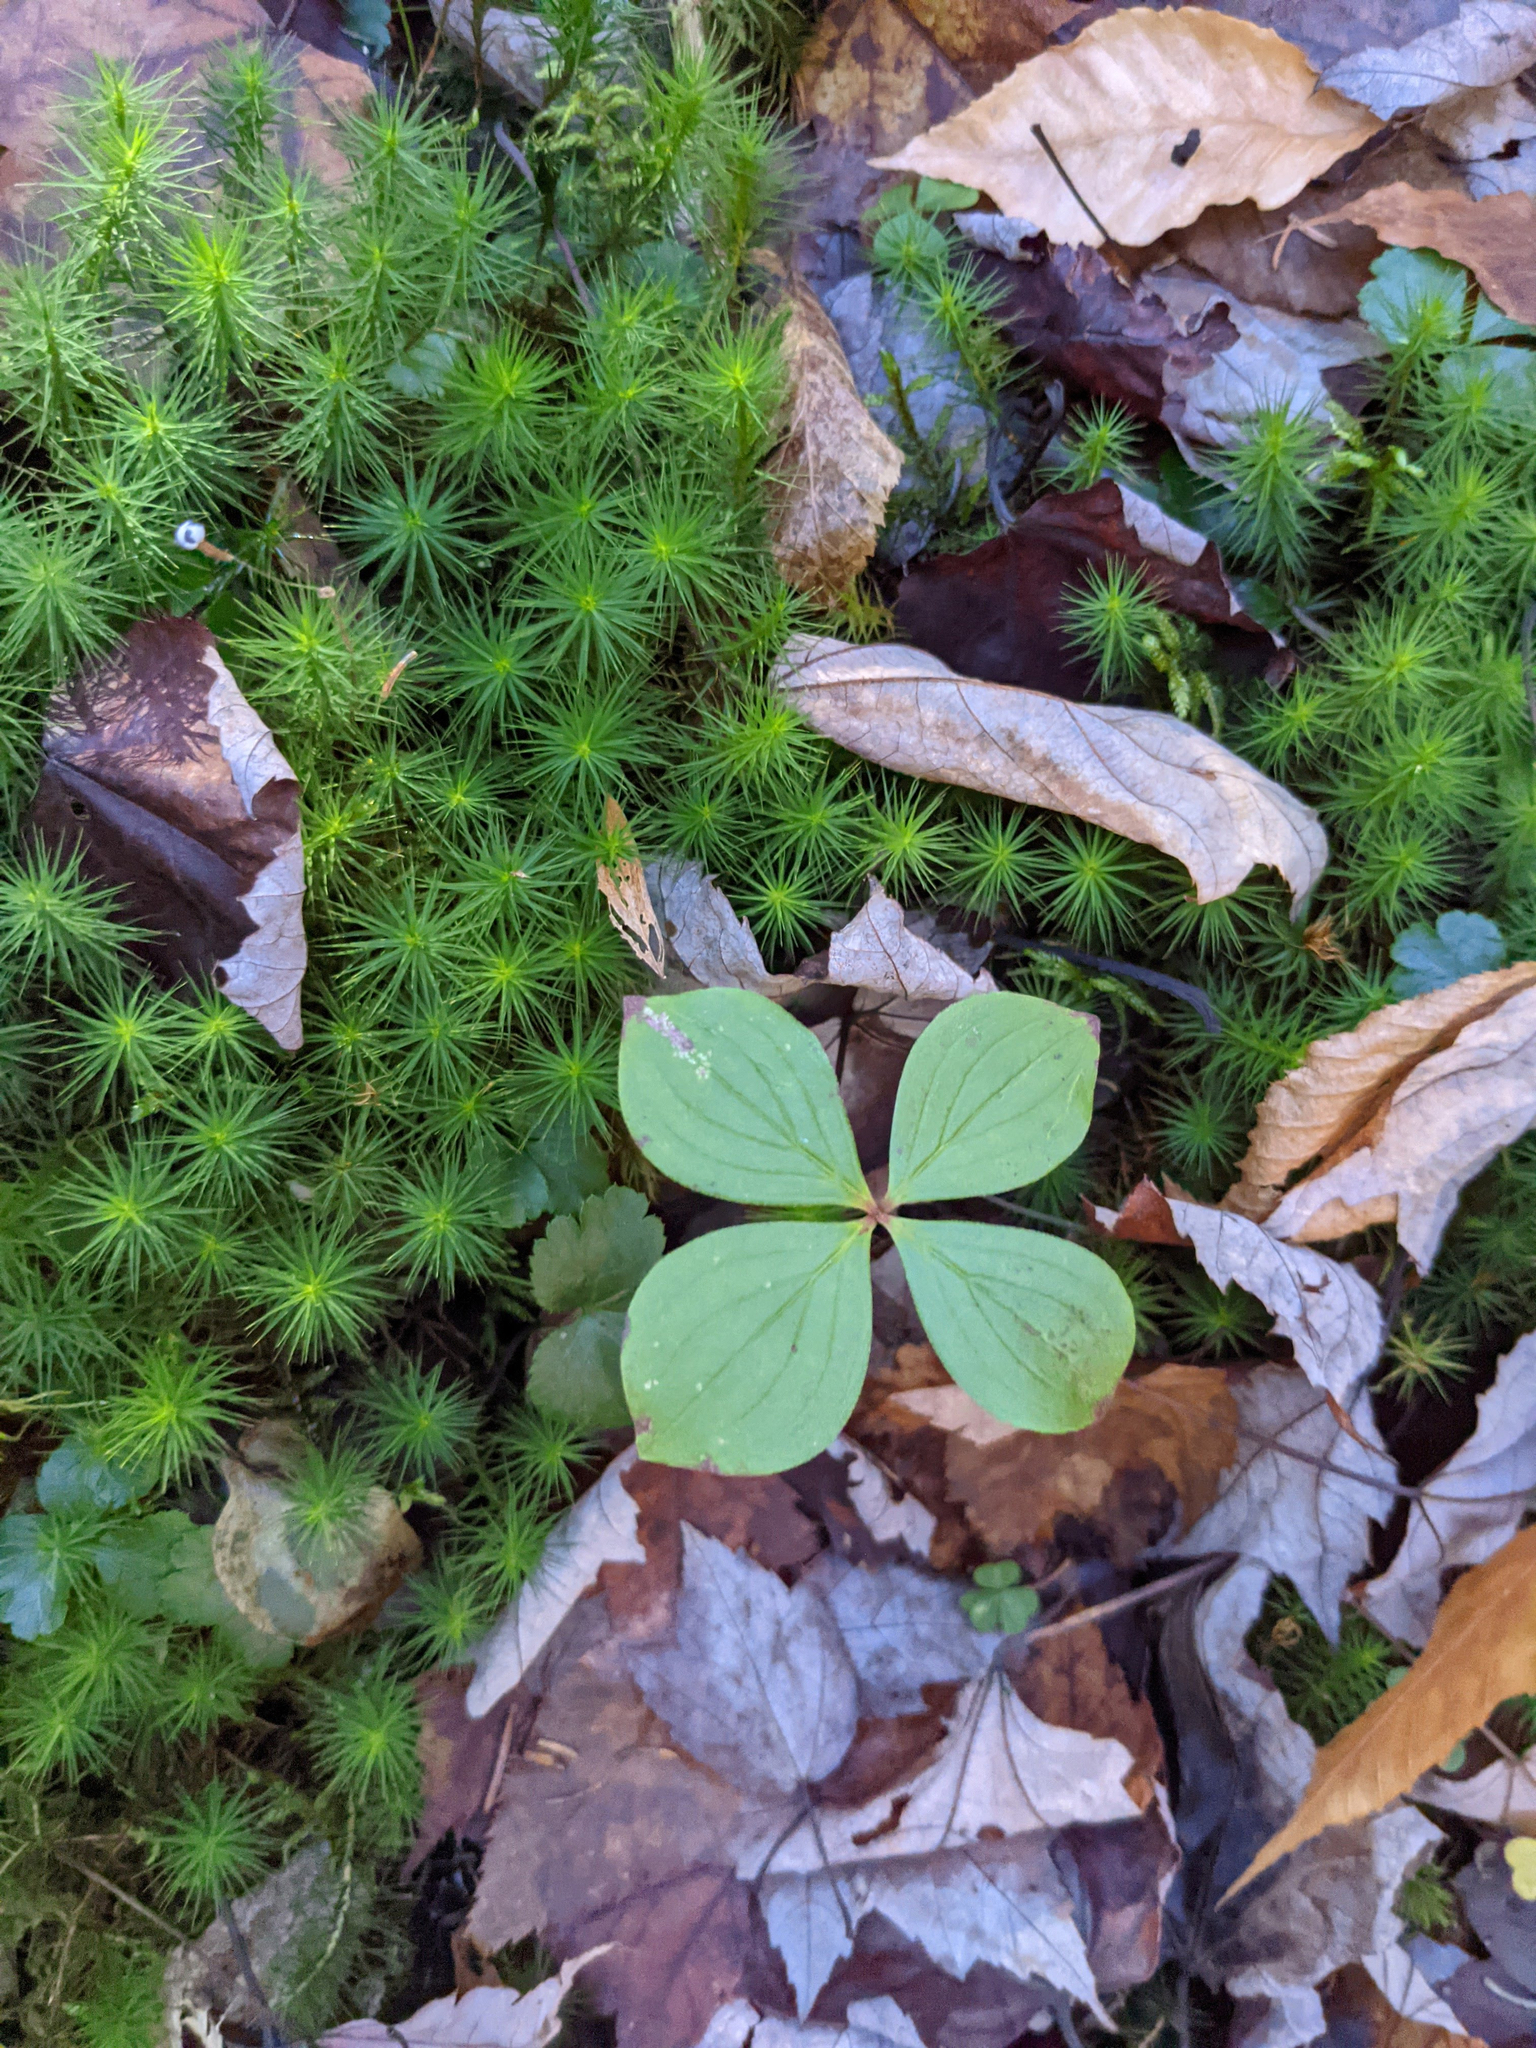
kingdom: Plantae
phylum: Tracheophyta
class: Magnoliopsida
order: Cornales
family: Cornaceae
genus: Cornus
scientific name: Cornus canadensis
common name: Creeping dogwood
